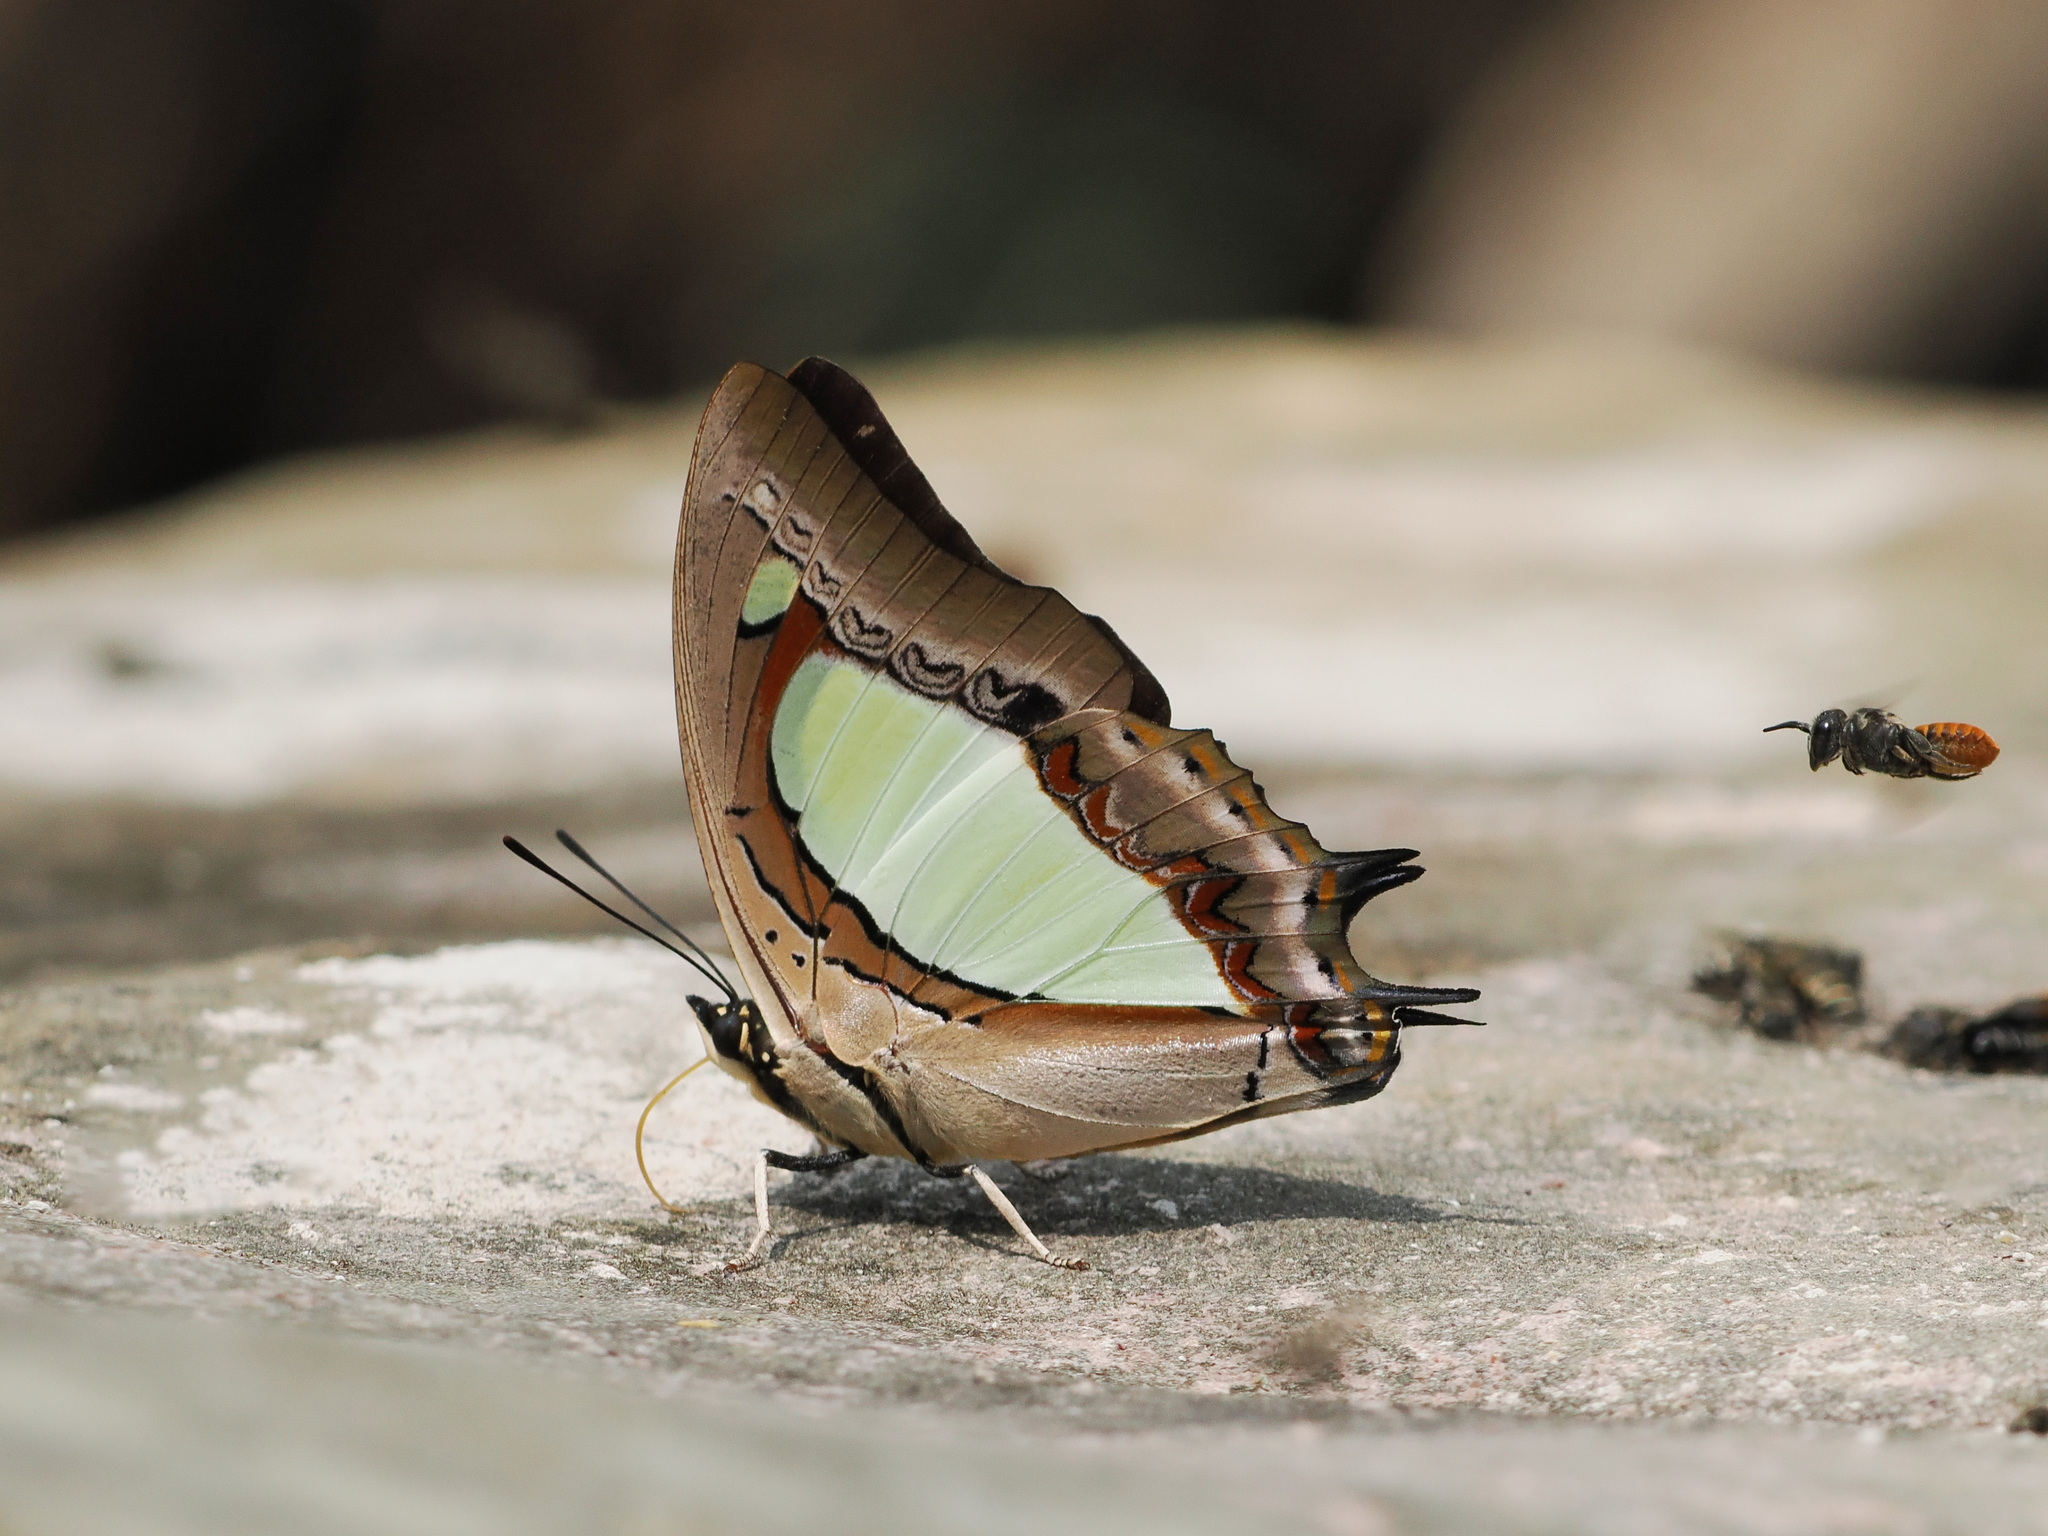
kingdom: Animalia
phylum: Arthropoda
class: Insecta
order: Lepidoptera
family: Nymphalidae
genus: Polyura
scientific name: Polyura arja
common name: Pallid nawab
